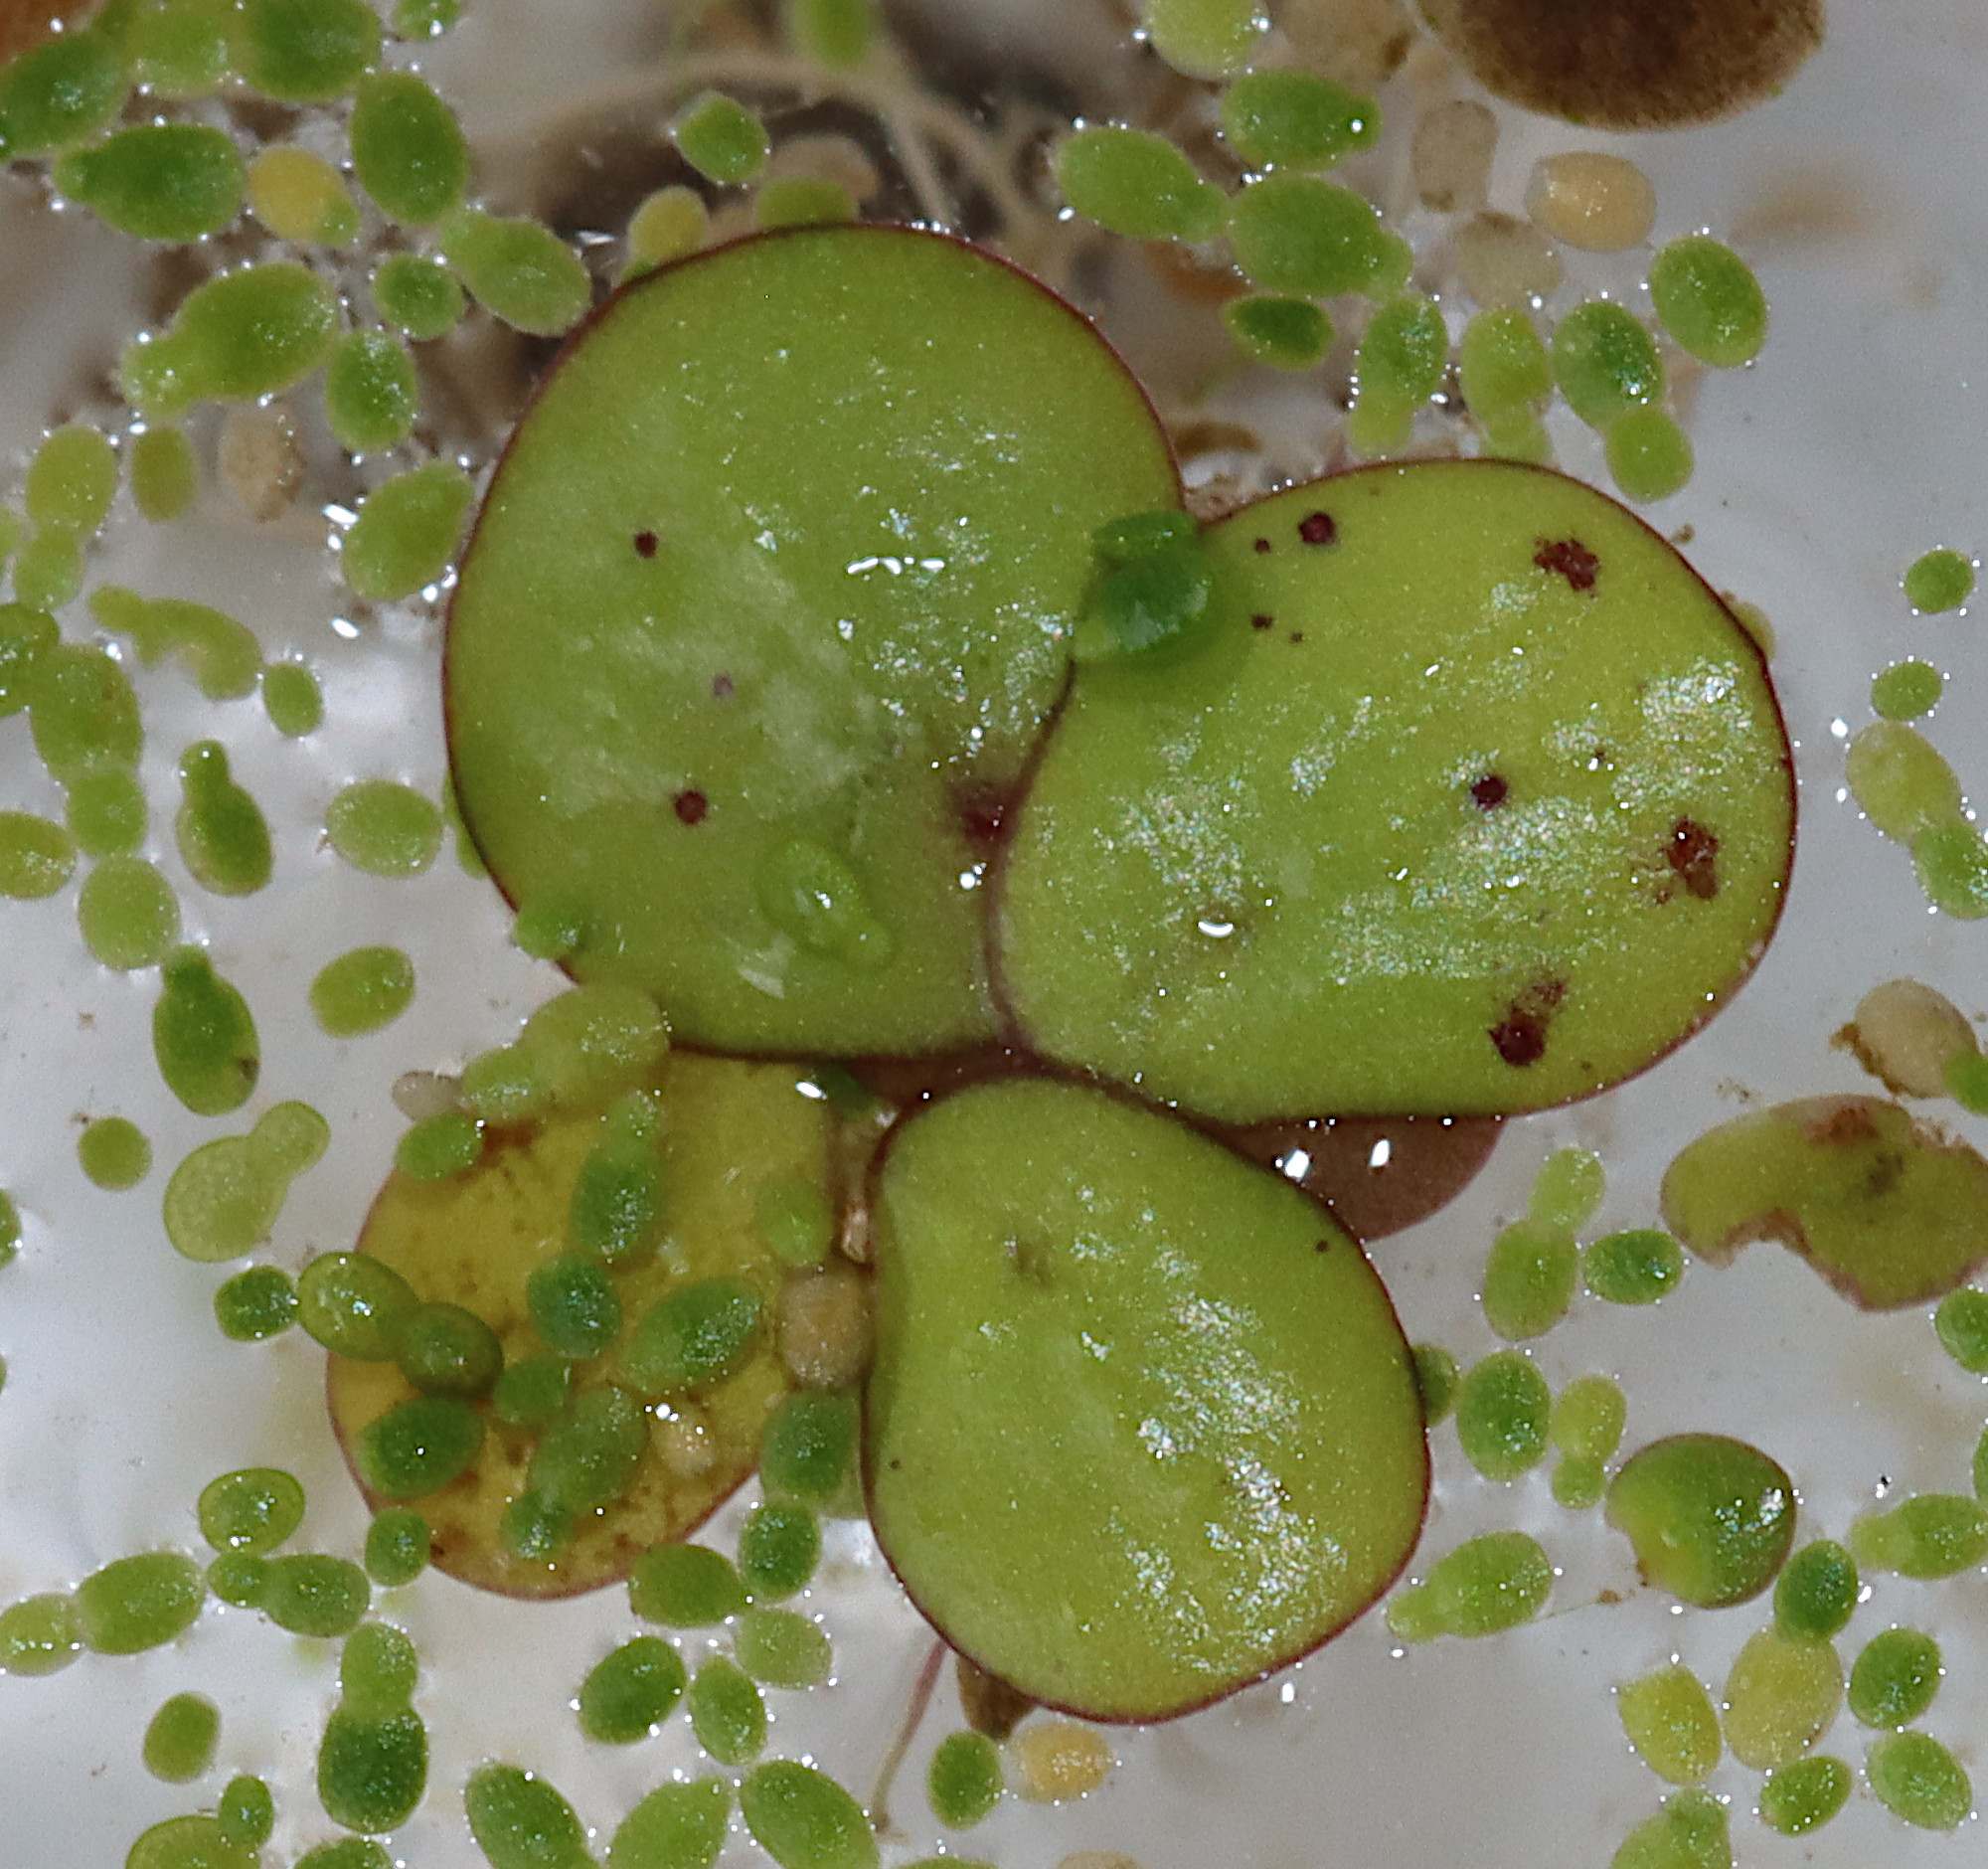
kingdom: Plantae
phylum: Tracheophyta
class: Liliopsida
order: Alismatales
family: Araceae
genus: Spirodela
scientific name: Spirodela polyrhiza
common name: Great duckweed
